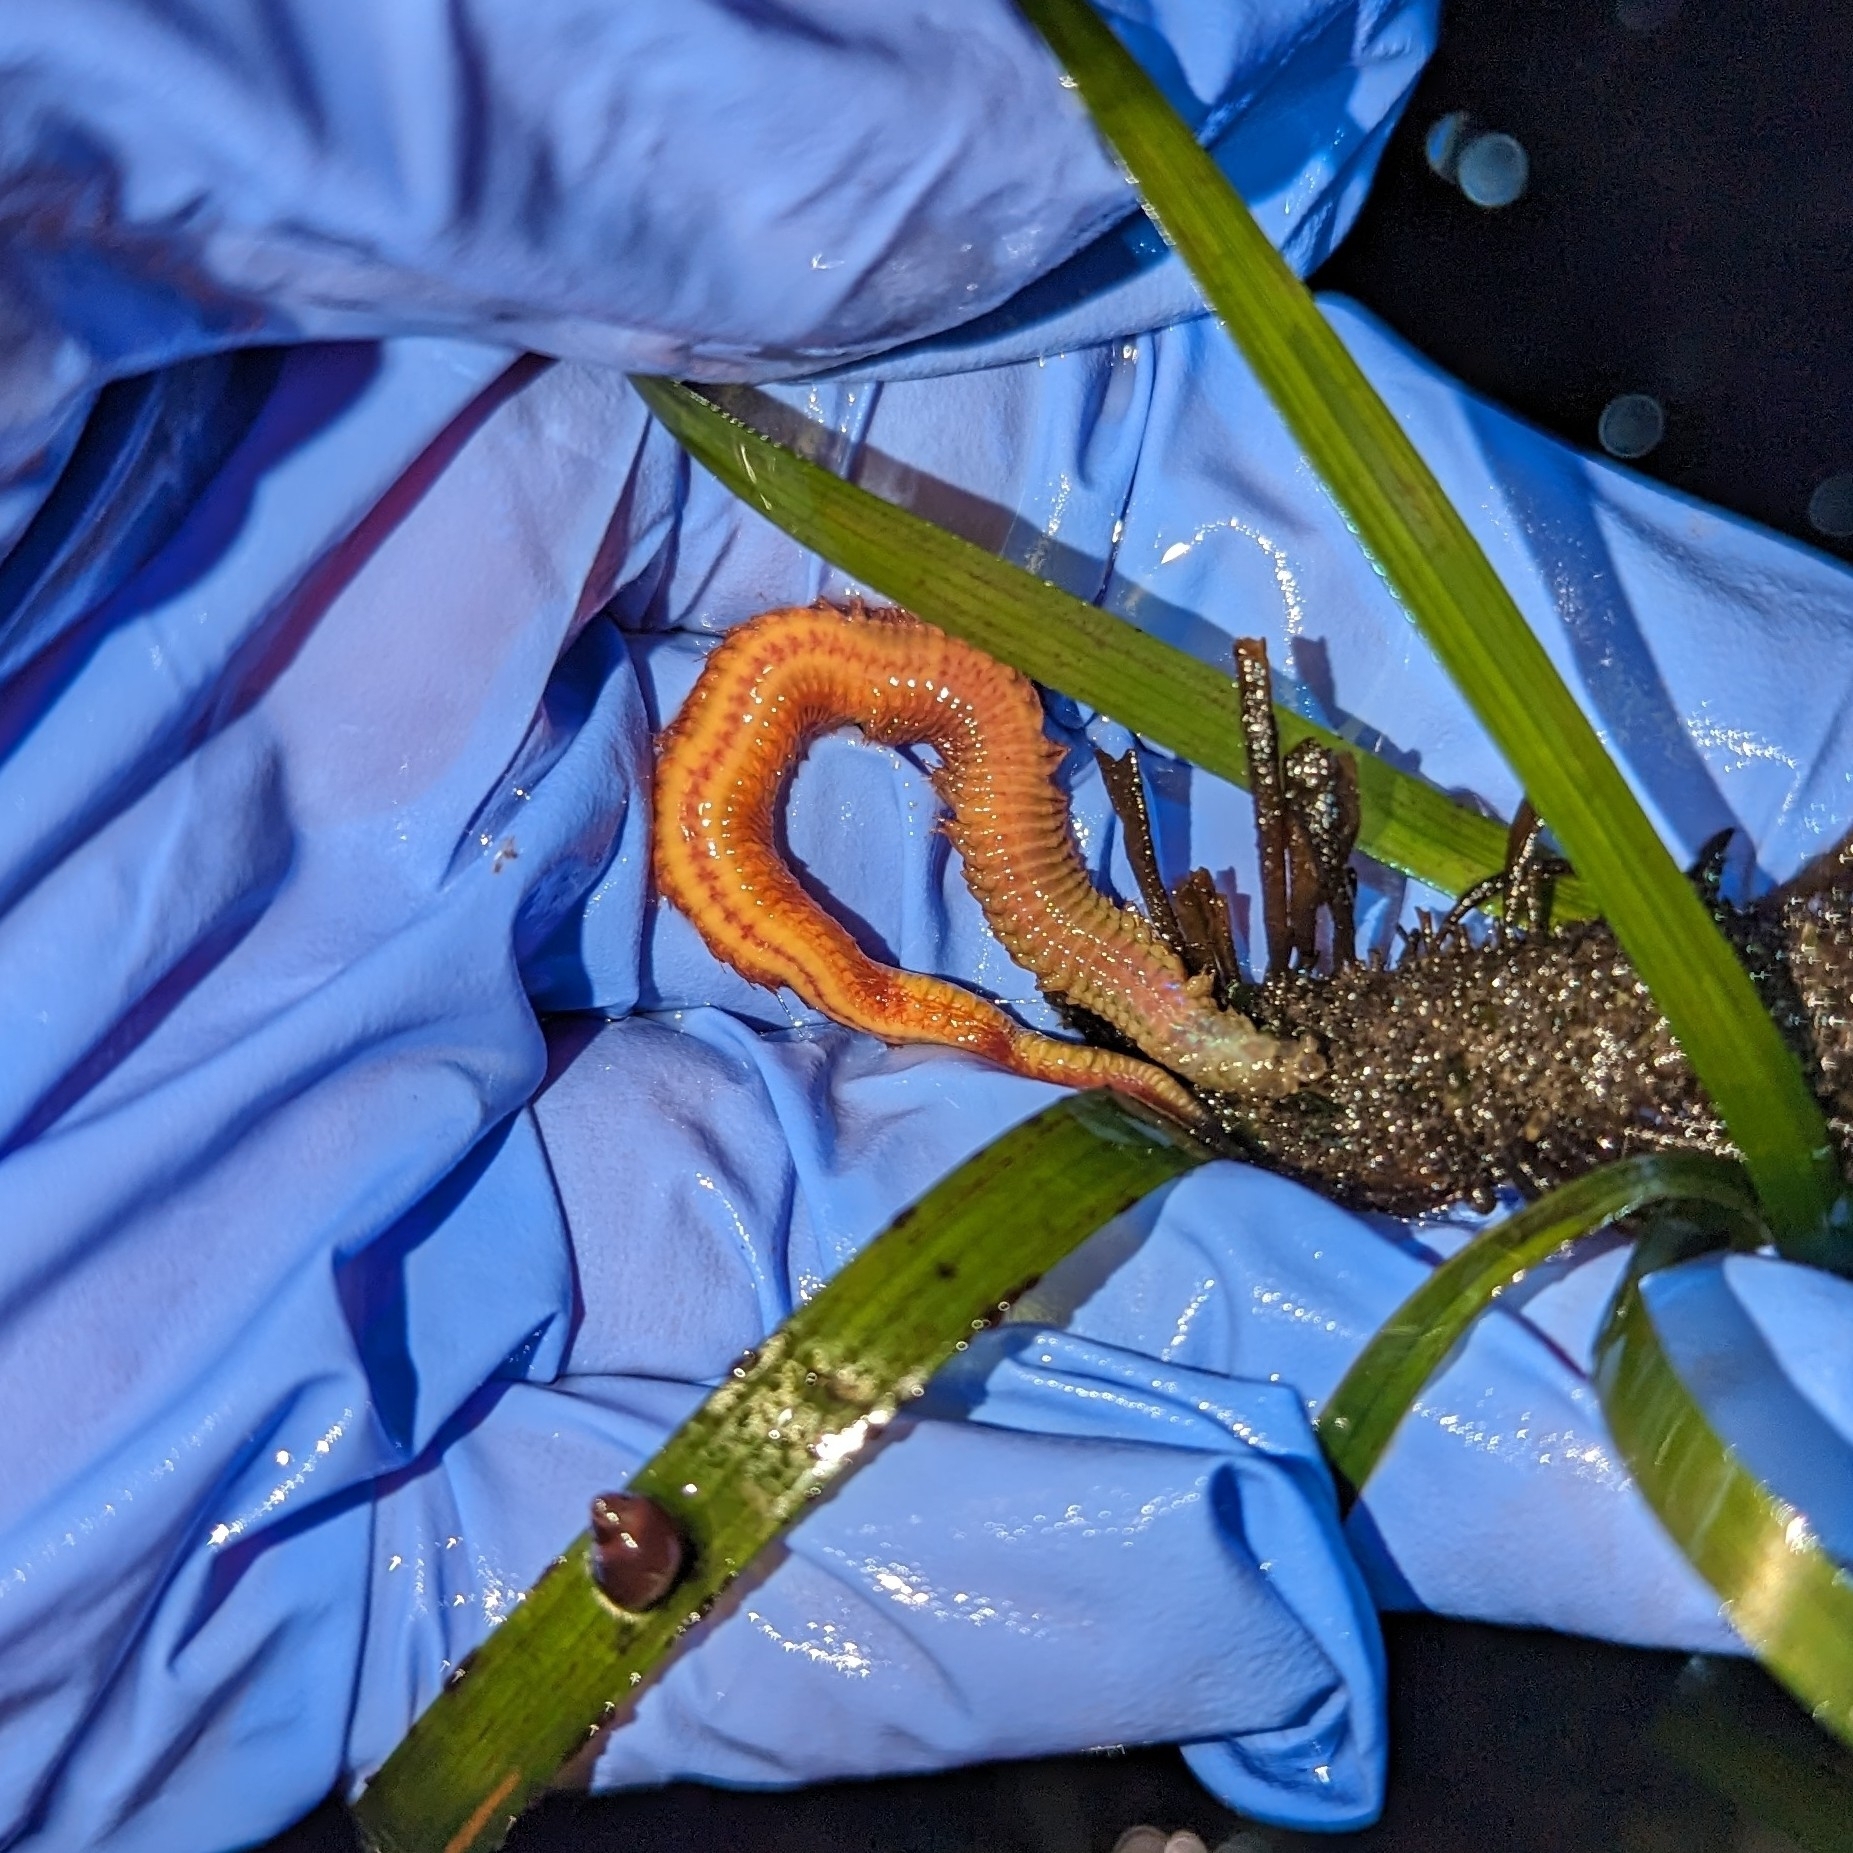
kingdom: Animalia
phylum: Annelida
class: Polychaeta
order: Phyllodocida
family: Nereididae
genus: Nereis
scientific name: Nereis vexillosa
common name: Mussel worm
